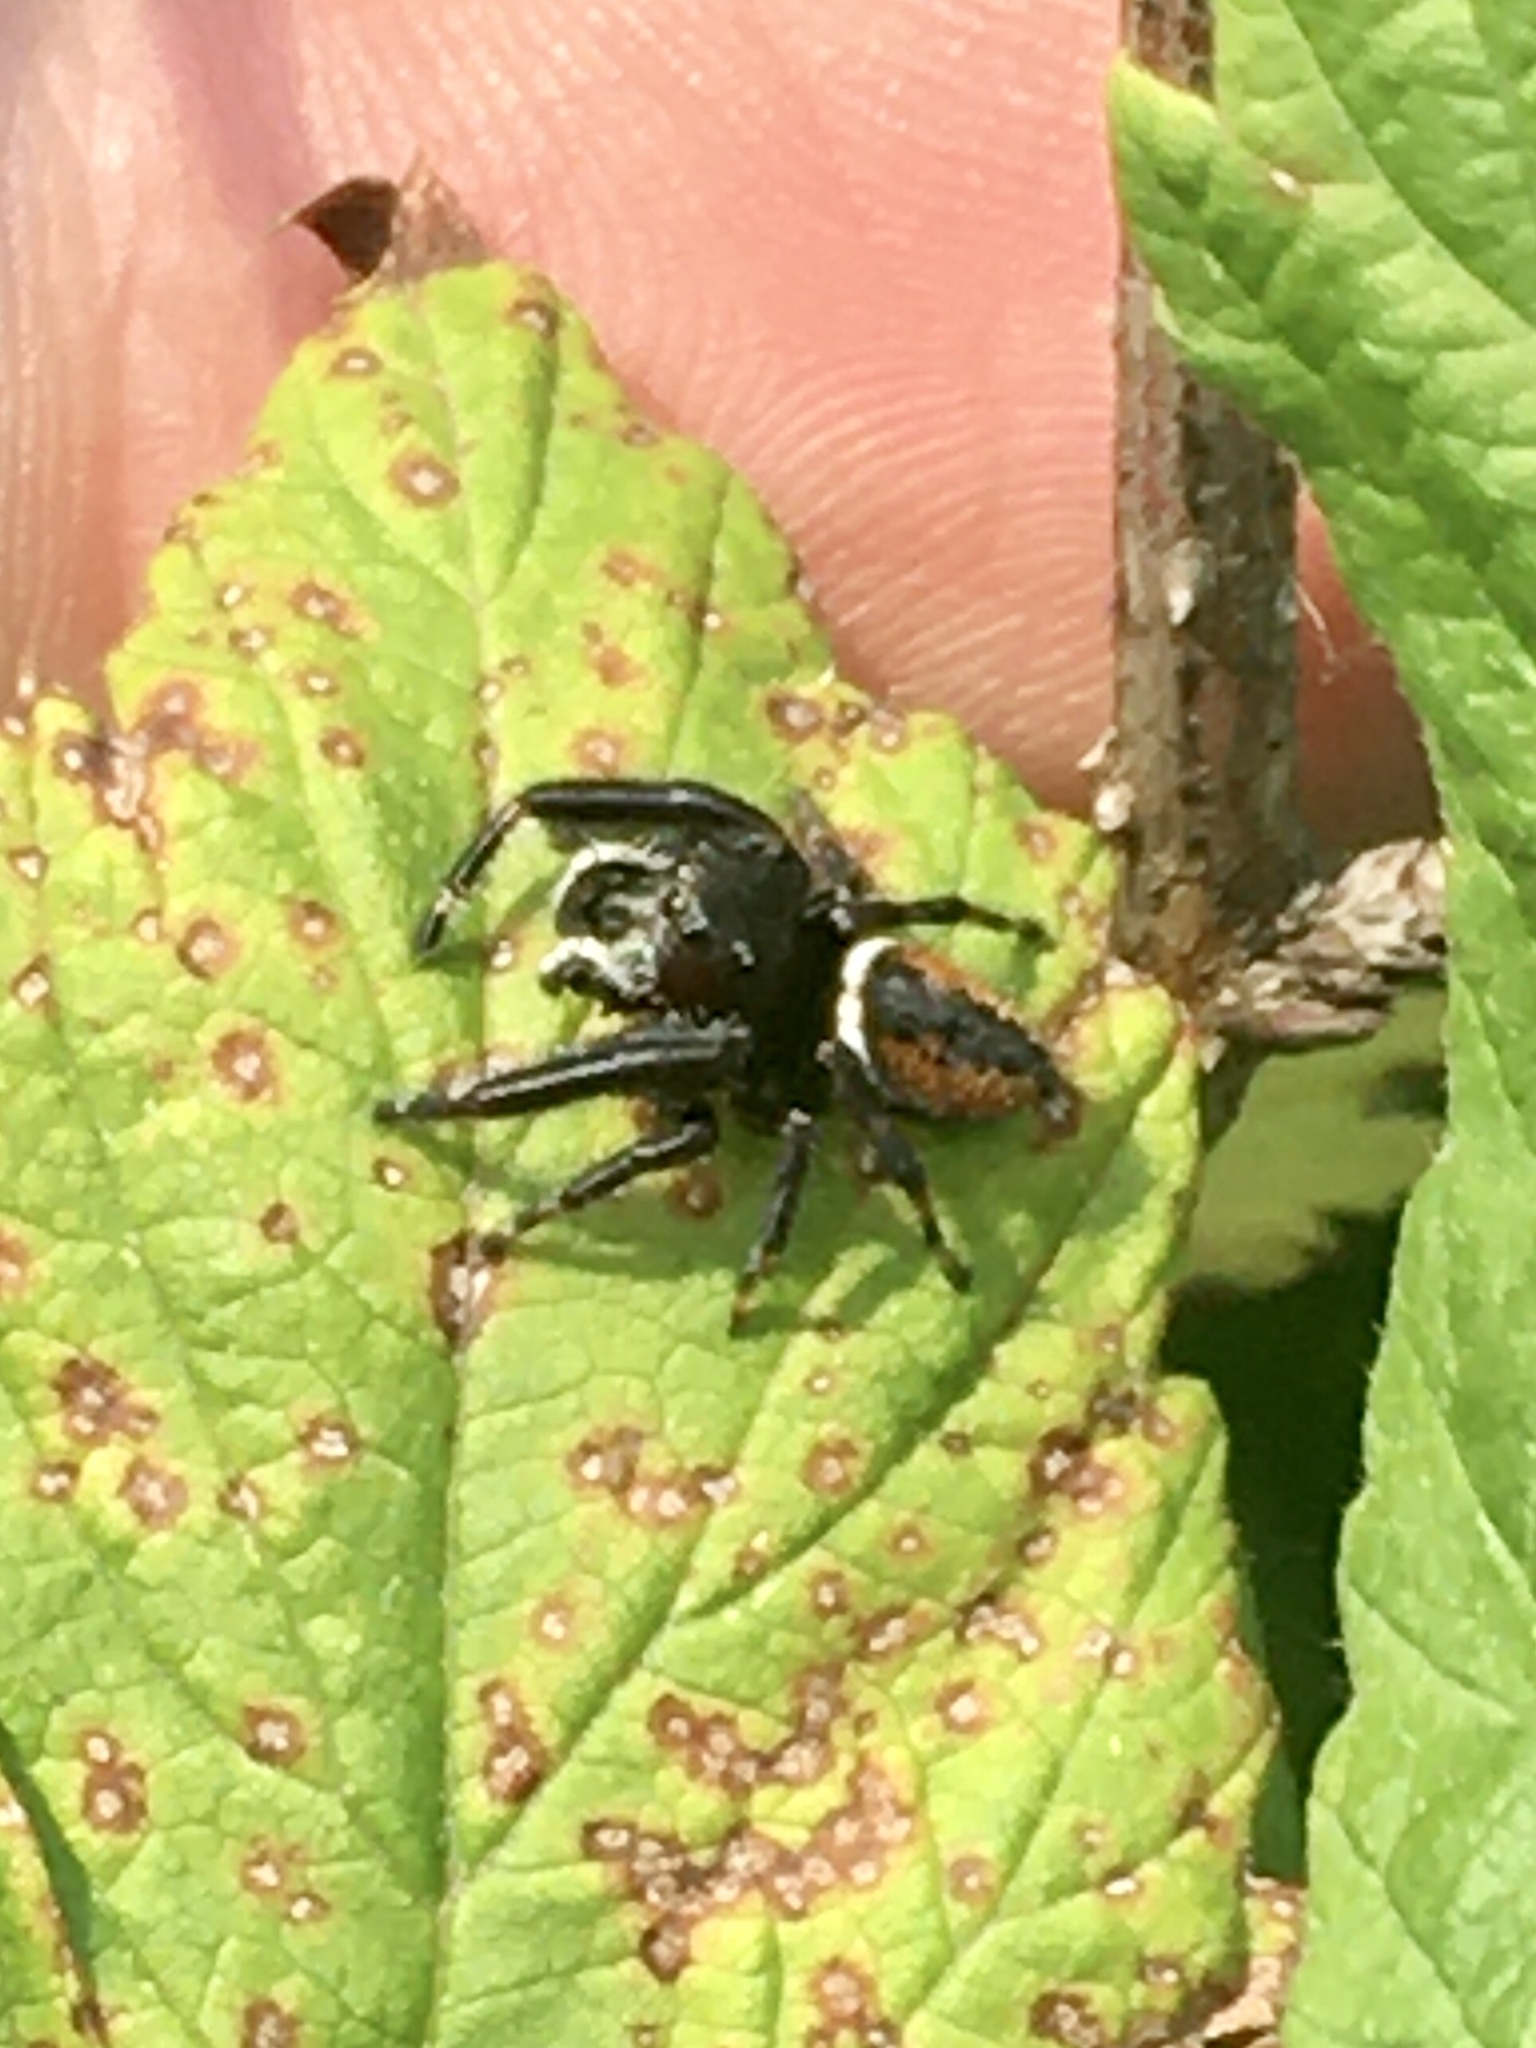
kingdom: Animalia
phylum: Arthropoda
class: Arachnida
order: Araneae
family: Salticidae
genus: Phidippus
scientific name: Phidippus clarus
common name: Brilliant jumping spider
